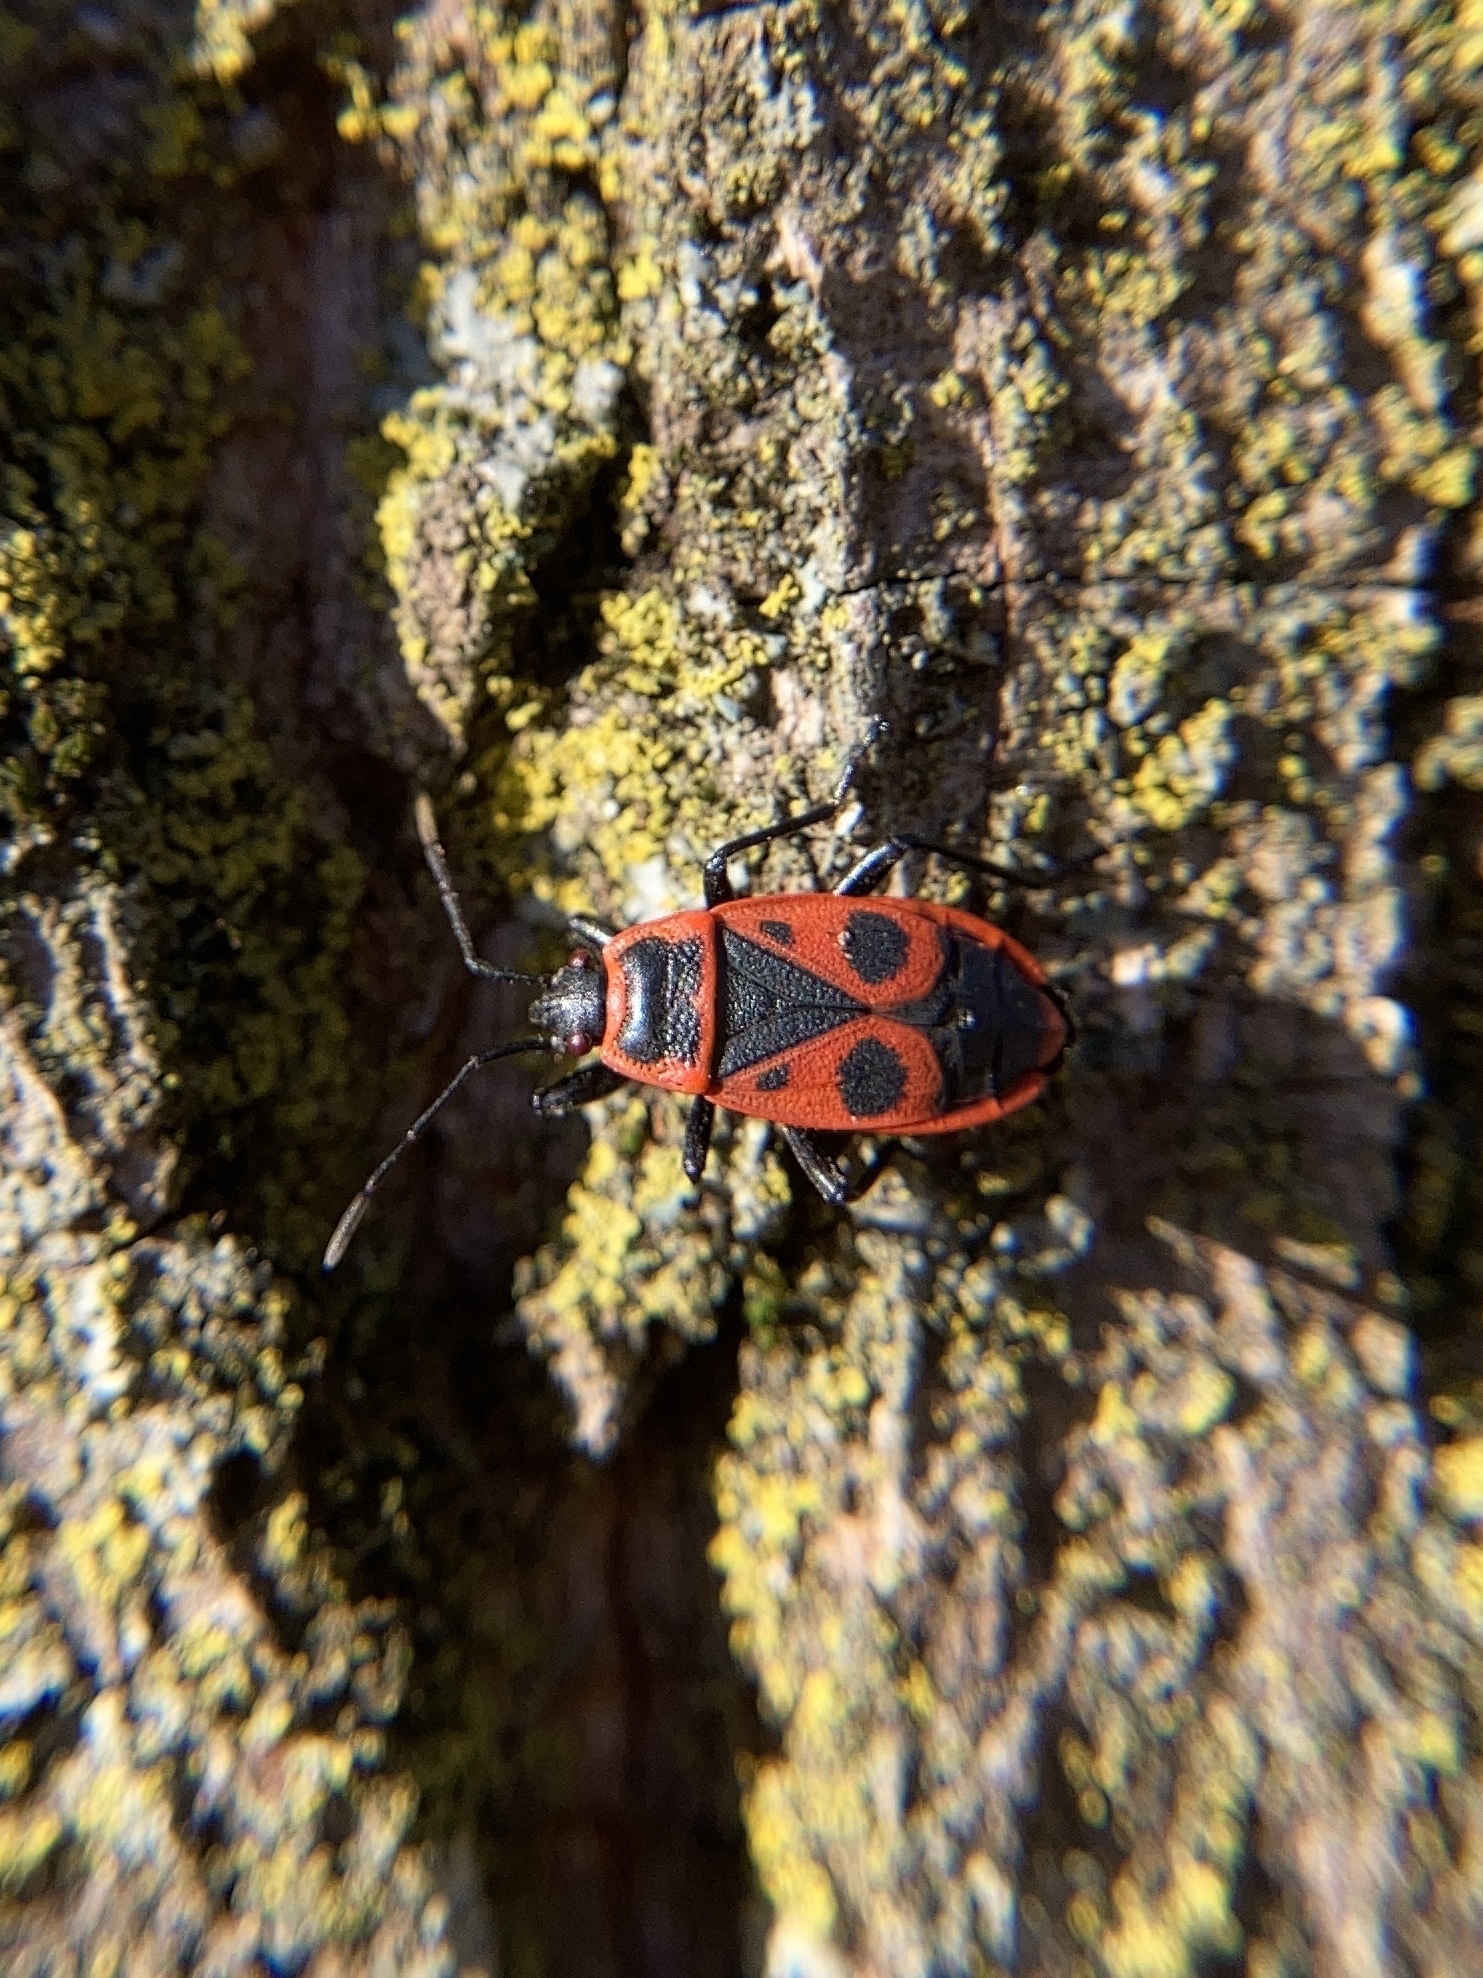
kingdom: Animalia
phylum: Arthropoda
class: Insecta
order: Hemiptera
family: Pyrrhocoridae
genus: Pyrrhocoris
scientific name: Pyrrhocoris apterus
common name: Firebug
